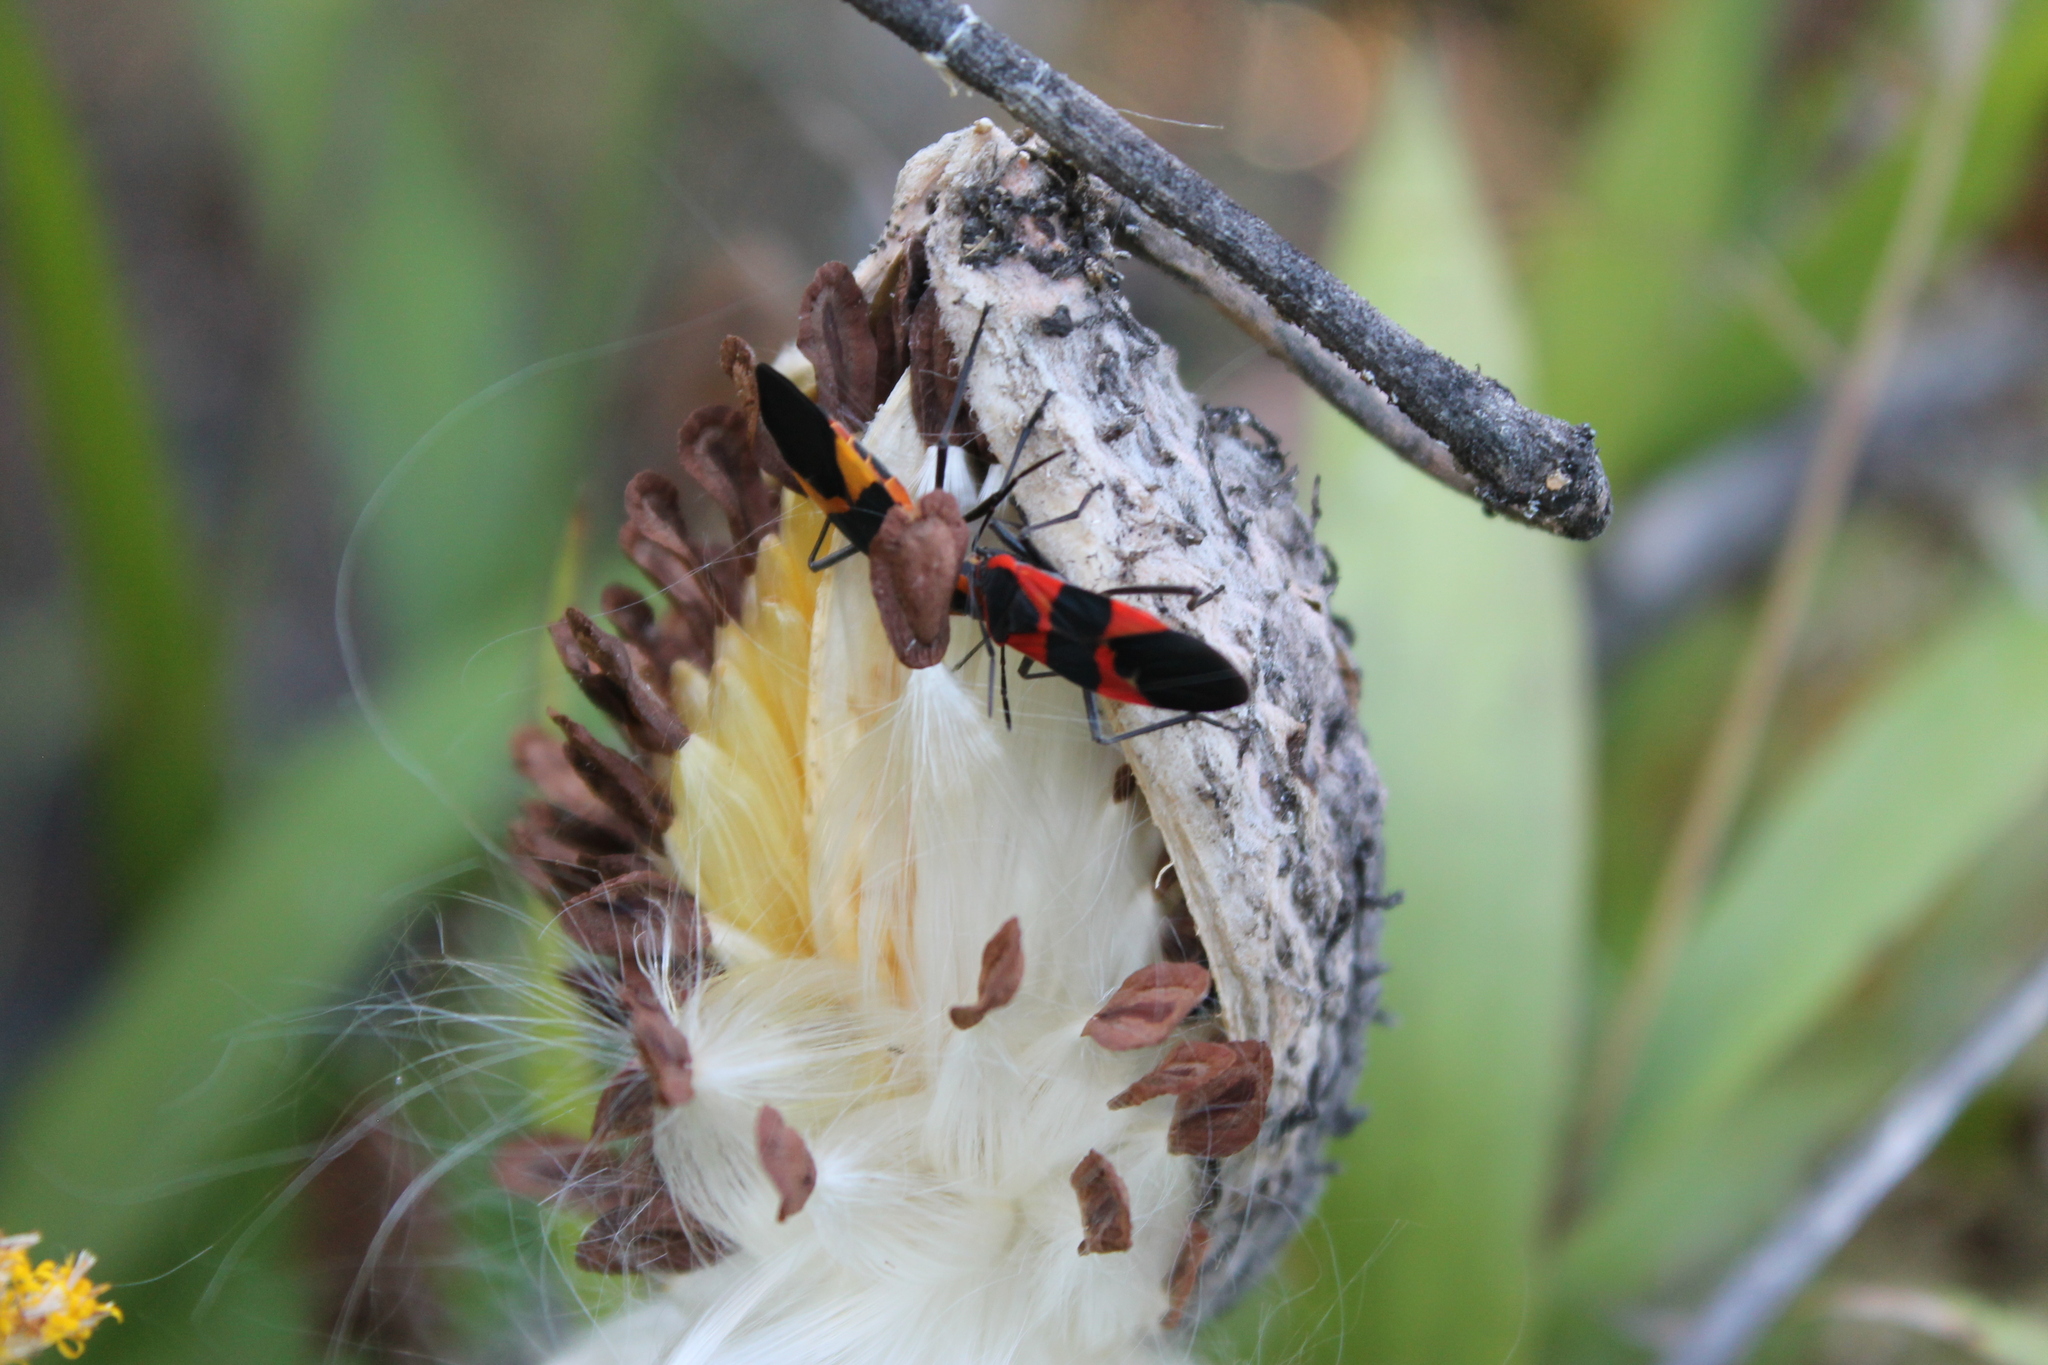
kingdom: Animalia
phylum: Arthropoda
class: Insecta
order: Hemiptera
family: Lygaeidae
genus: Oncopeltus
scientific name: Oncopeltus fasciatus
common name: Large milkweed bug
